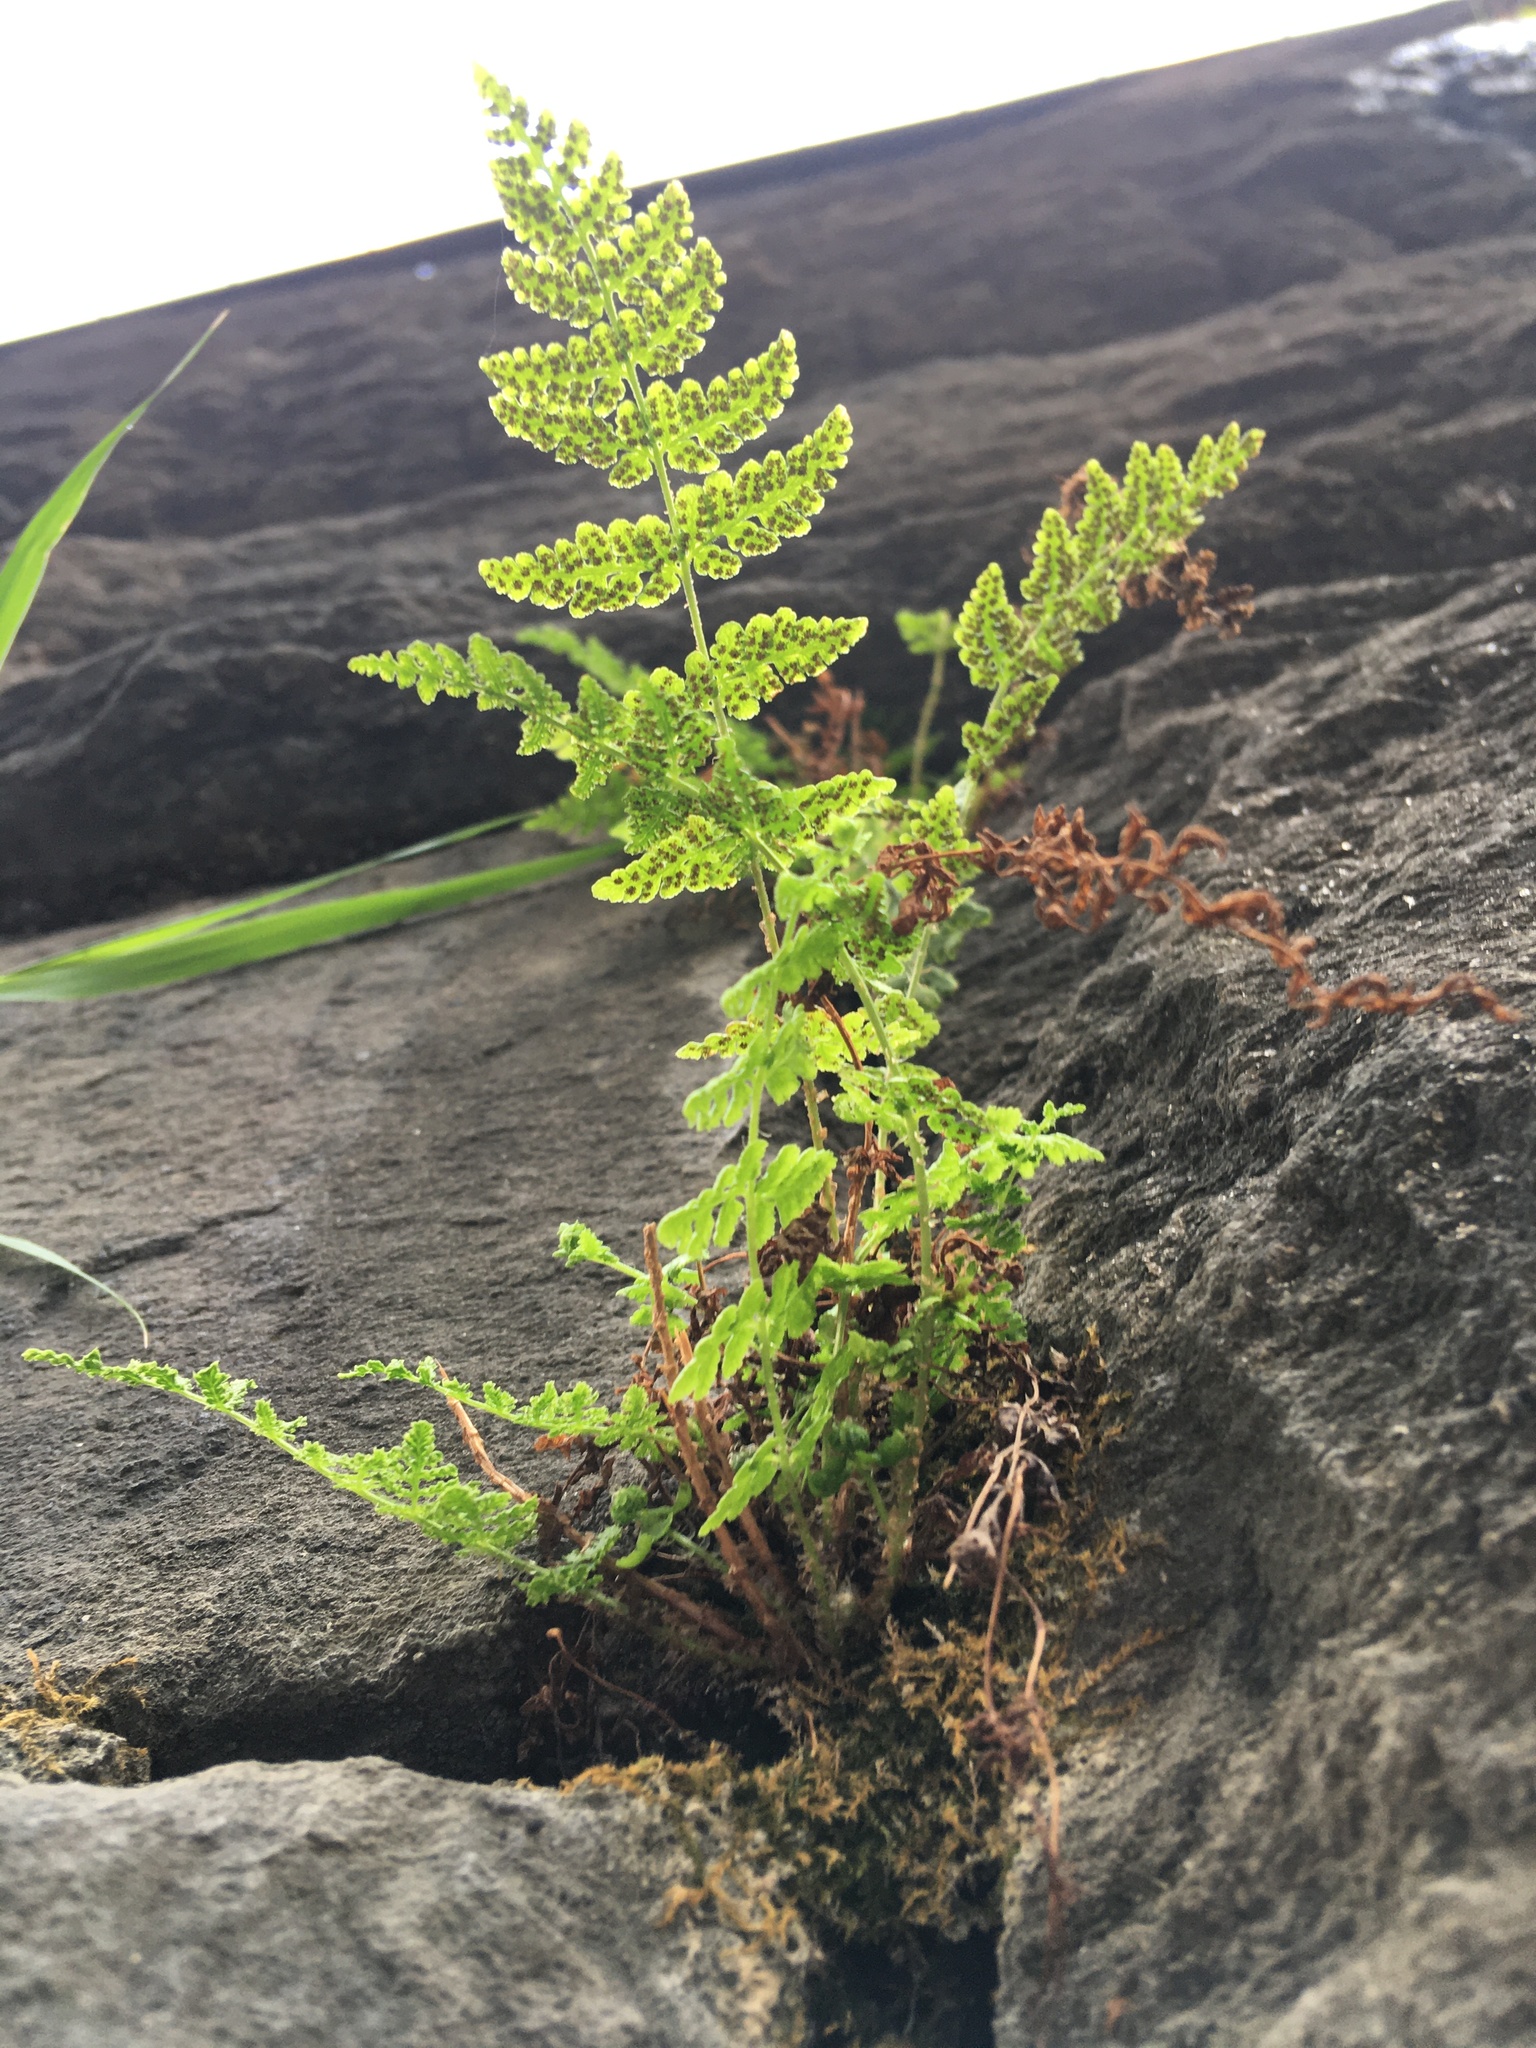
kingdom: Plantae
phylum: Tracheophyta
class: Polypodiopsida
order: Polypodiales
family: Woodsiaceae
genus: Physematium
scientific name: Physematium obtusum
